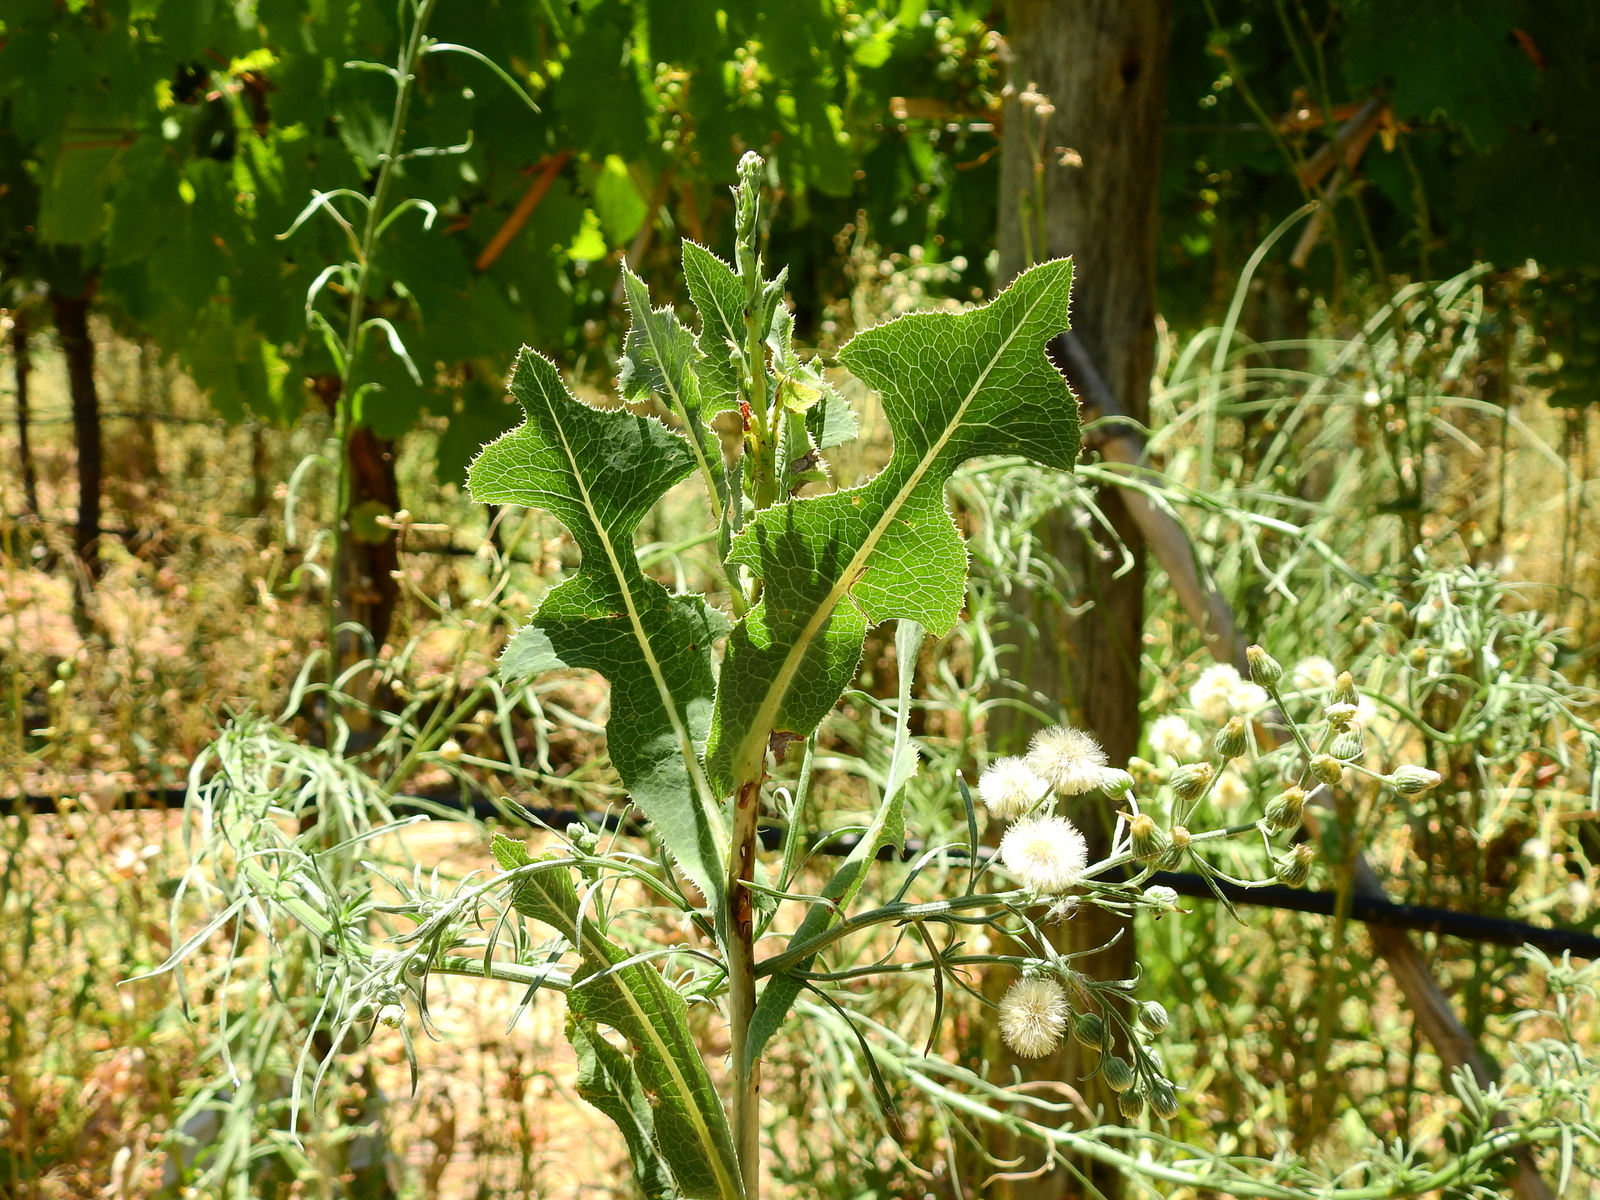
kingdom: Plantae
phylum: Tracheophyta
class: Magnoliopsida
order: Asterales
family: Asteraceae
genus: Lactuca
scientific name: Lactuca serriola
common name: Prickly lettuce
